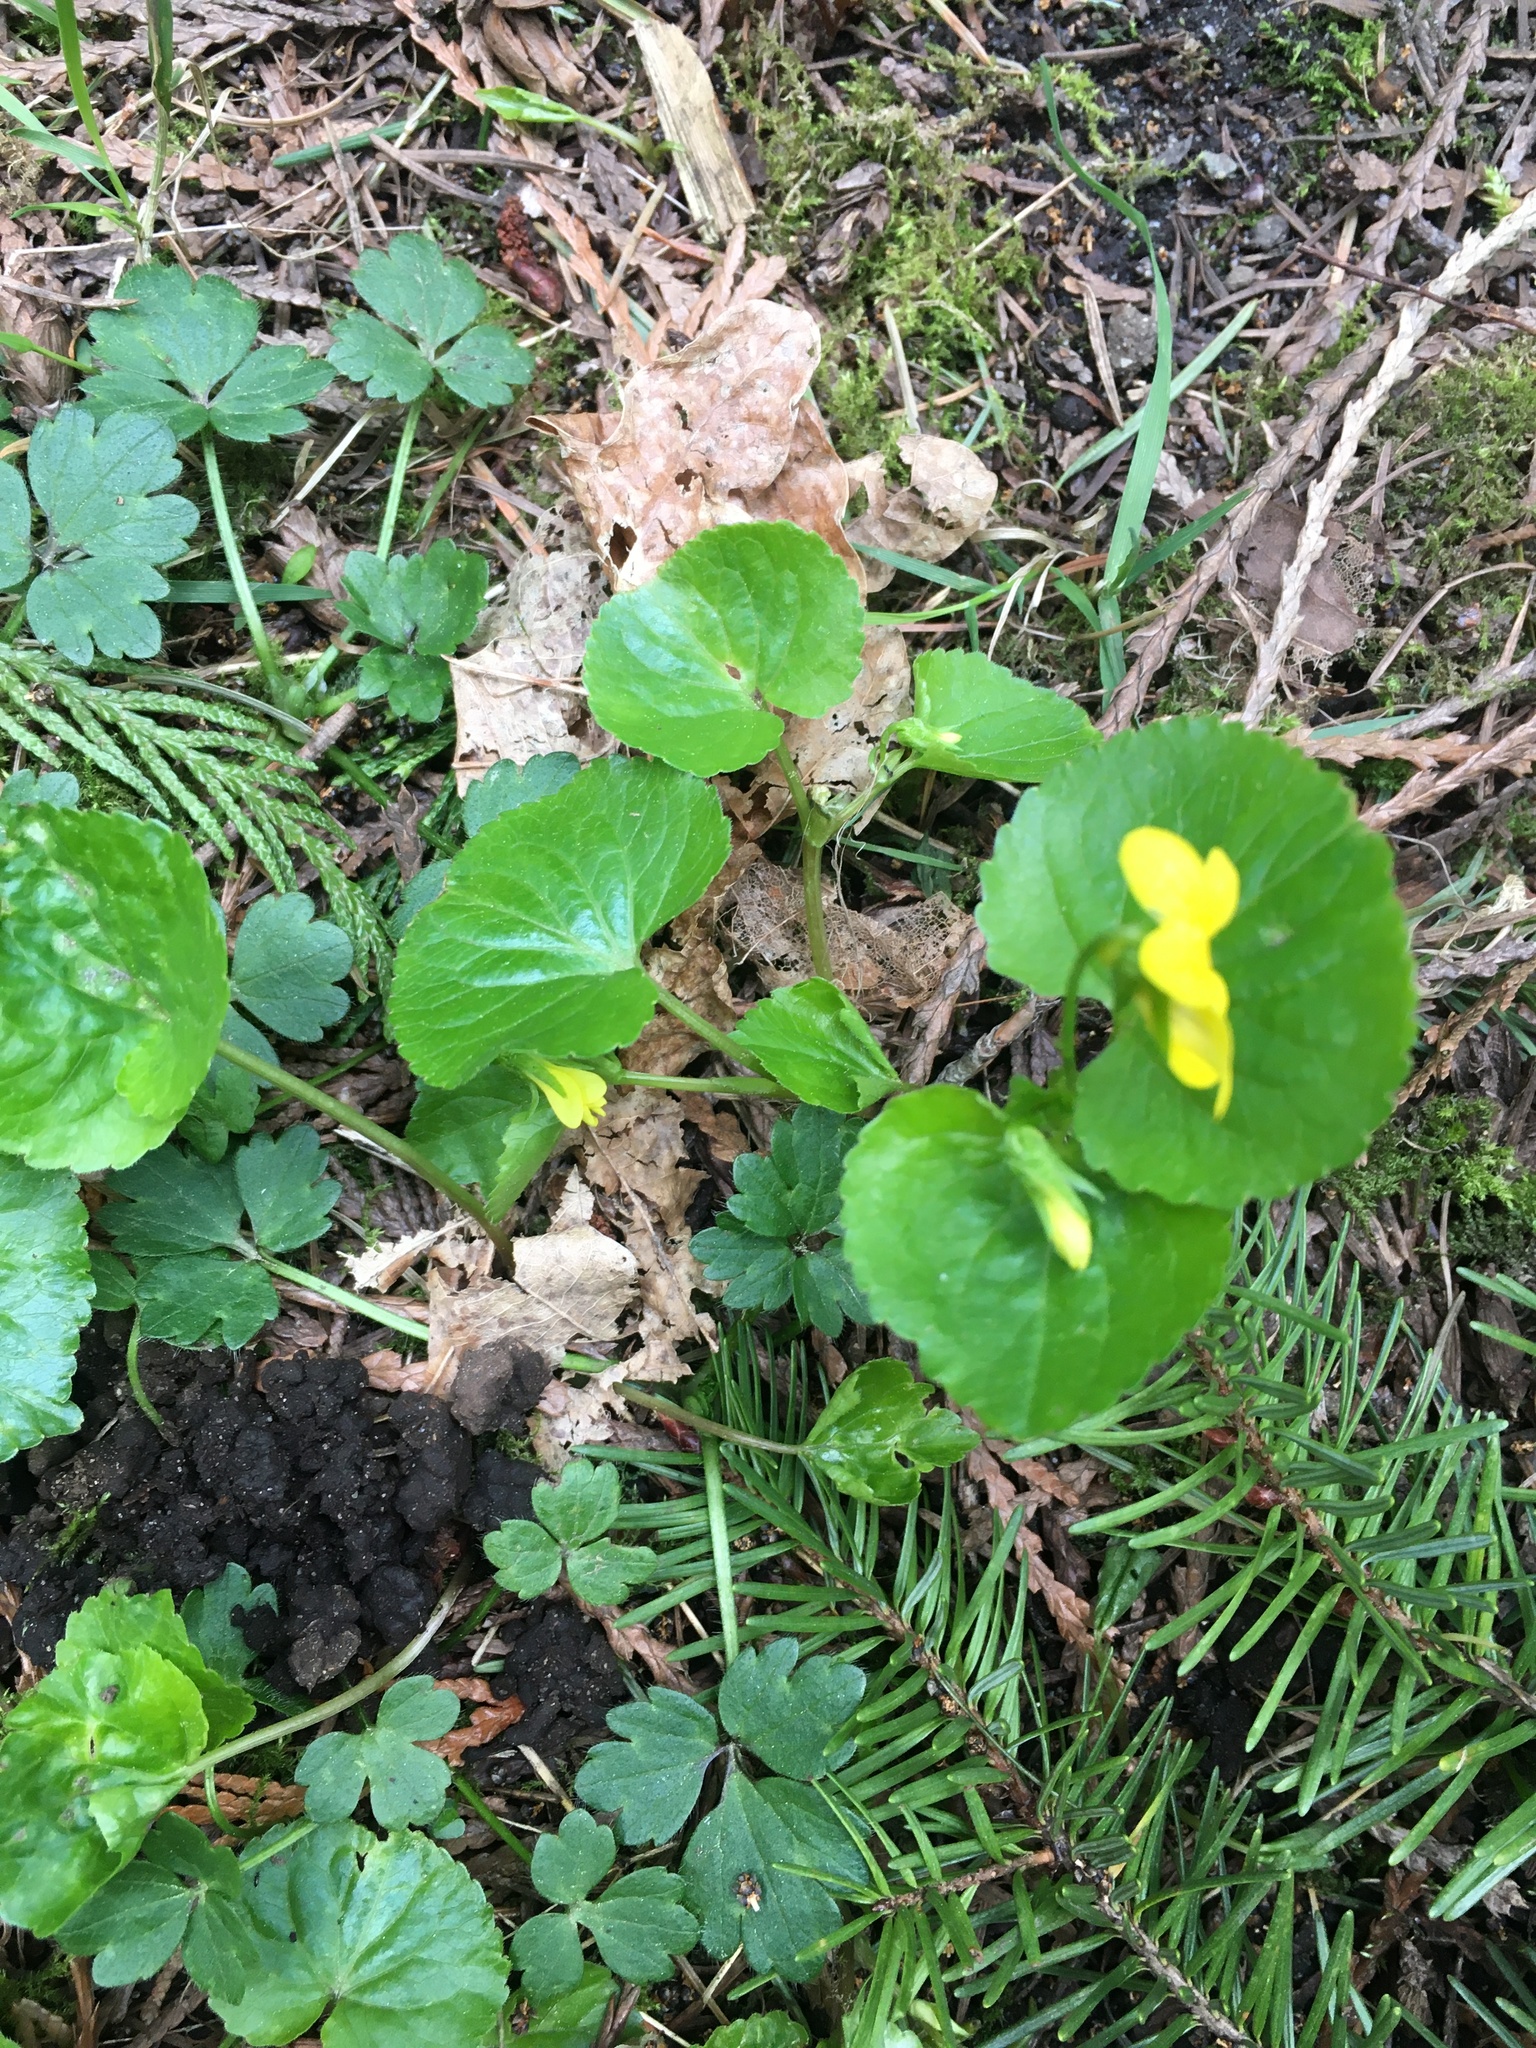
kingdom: Plantae
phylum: Tracheophyta
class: Magnoliopsida
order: Malpighiales
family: Violaceae
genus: Viola
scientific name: Viola glabella
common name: Stream violet
